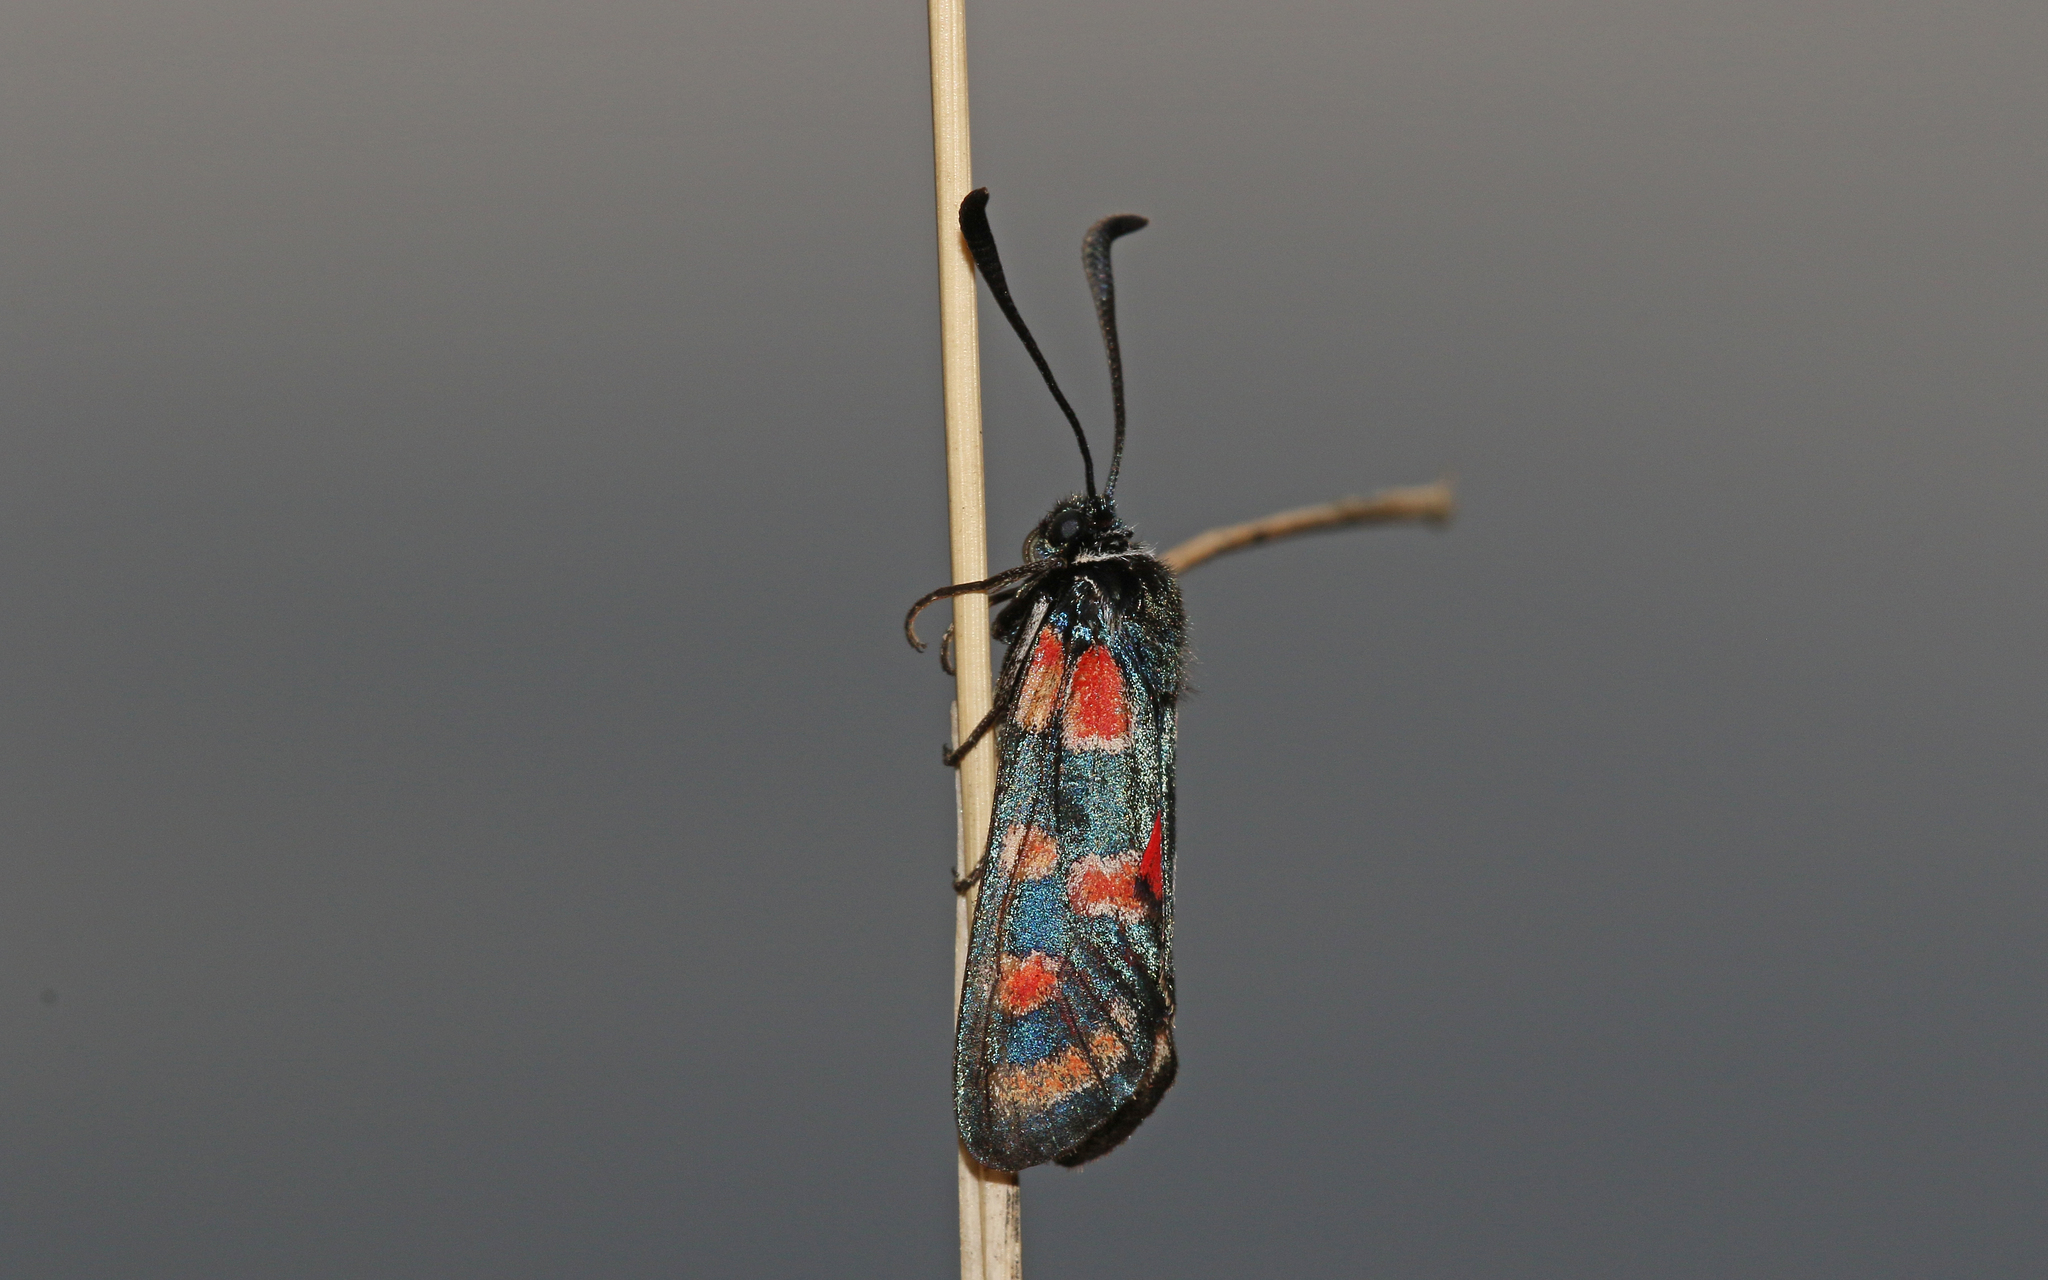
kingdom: Animalia
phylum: Arthropoda
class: Insecta
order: Lepidoptera
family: Zygaenidae
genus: Zygaena
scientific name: Zygaena carniolica
